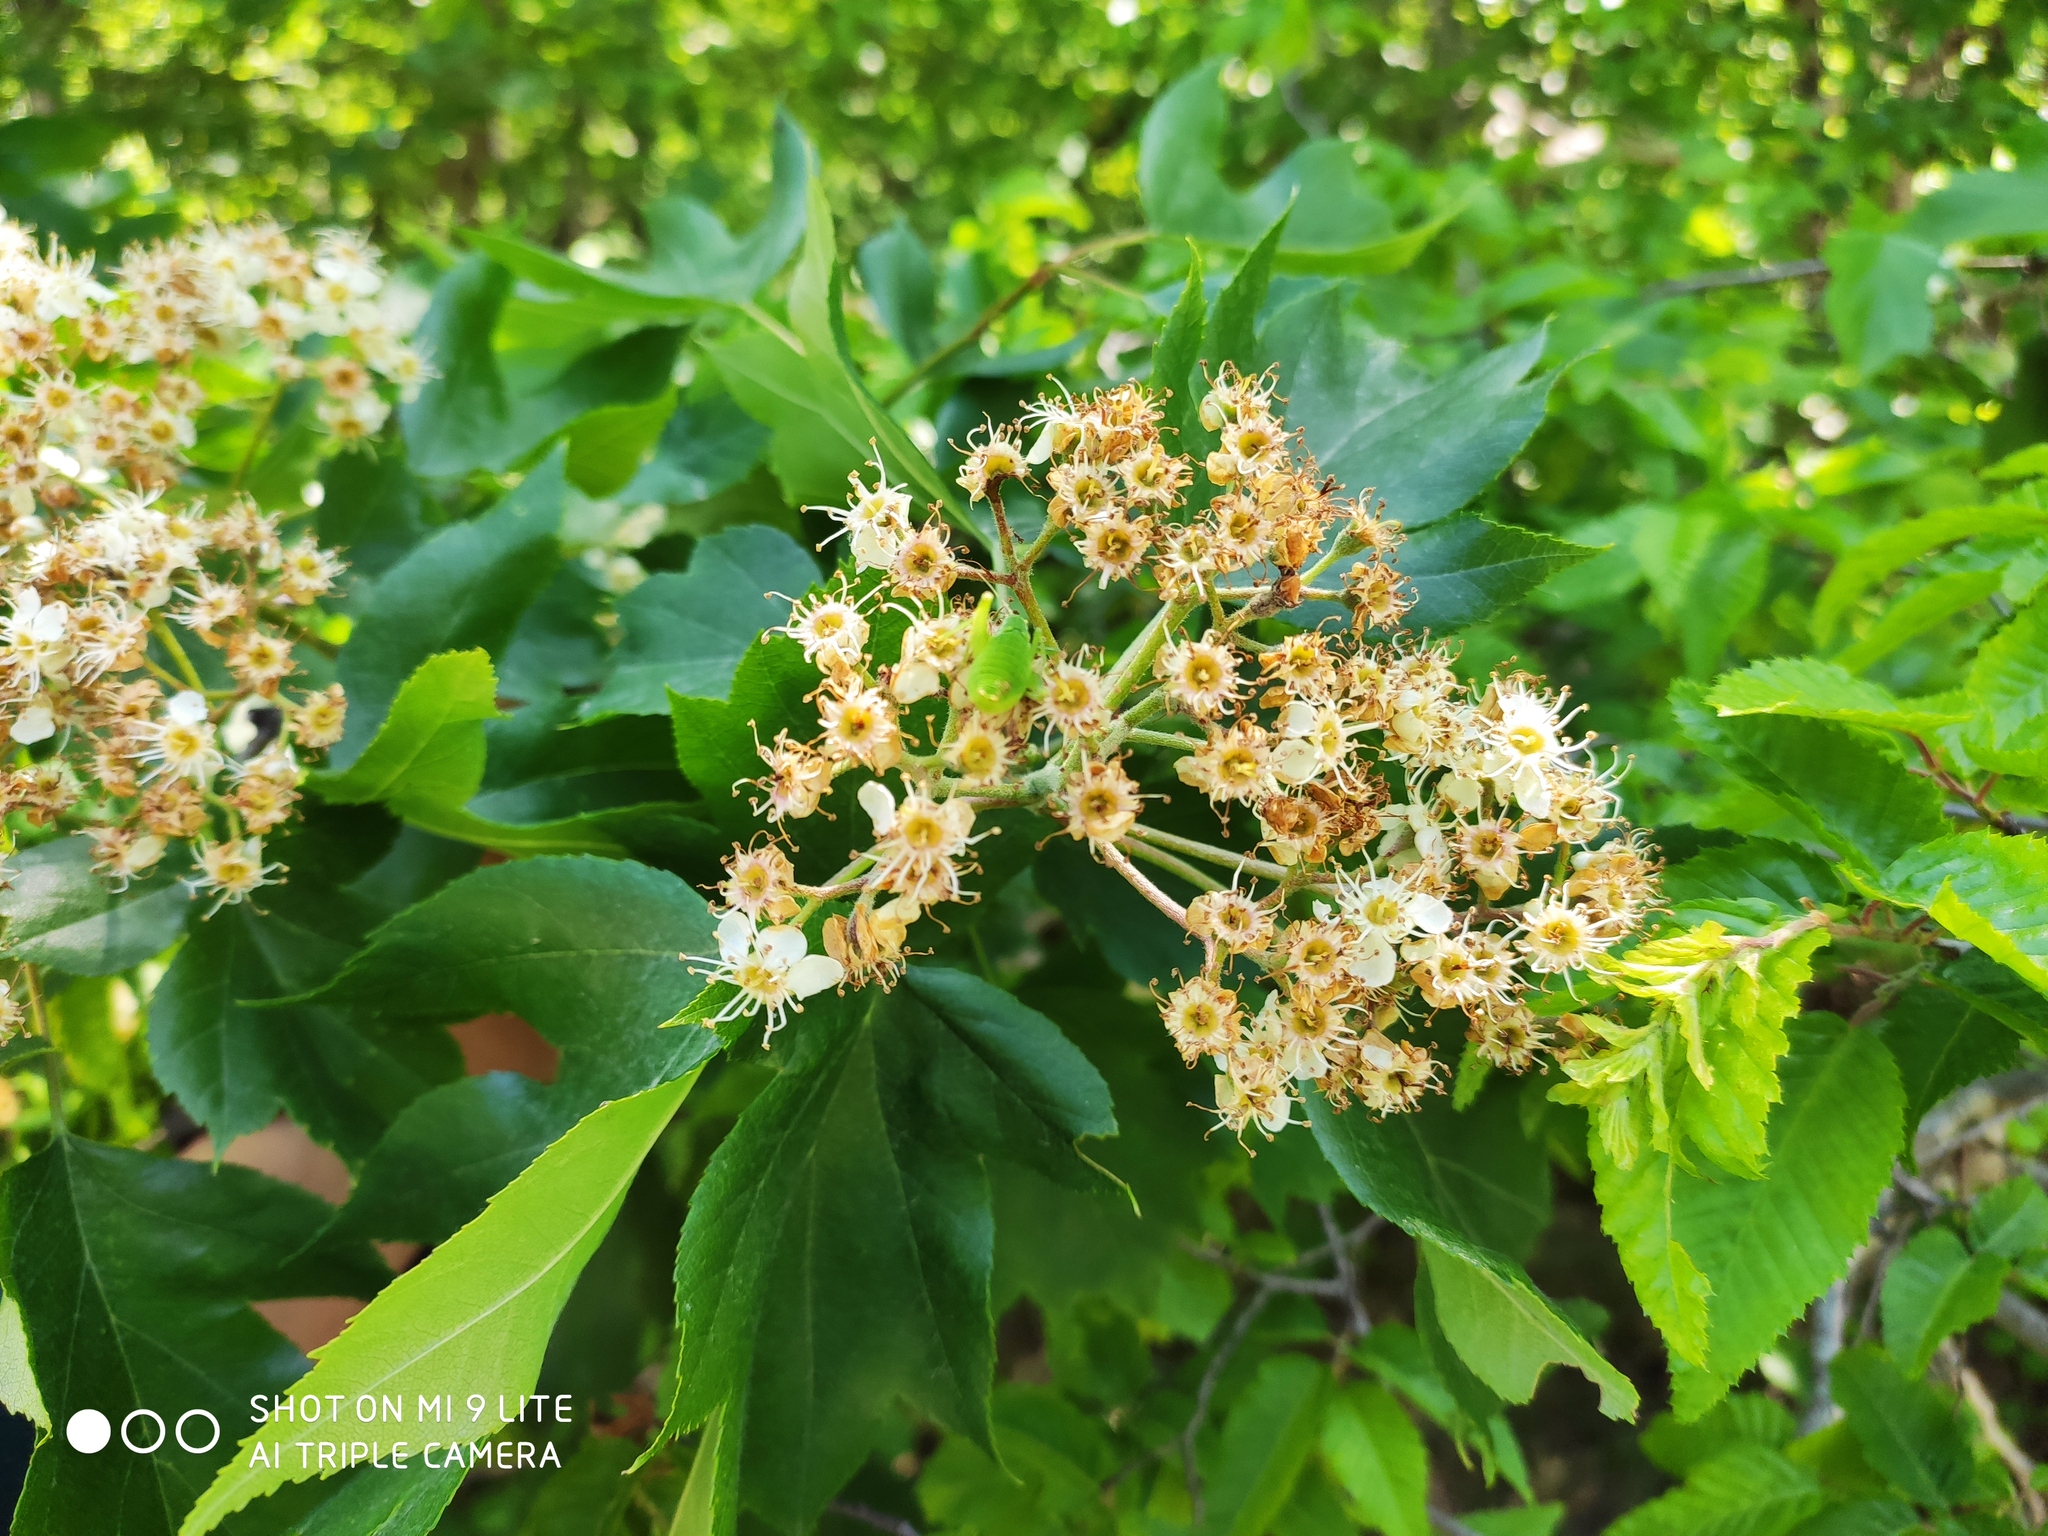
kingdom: Plantae
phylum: Tracheophyta
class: Magnoliopsida
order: Rosales
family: Rosaceae
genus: Torminalis
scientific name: Torminalis glaberrima
